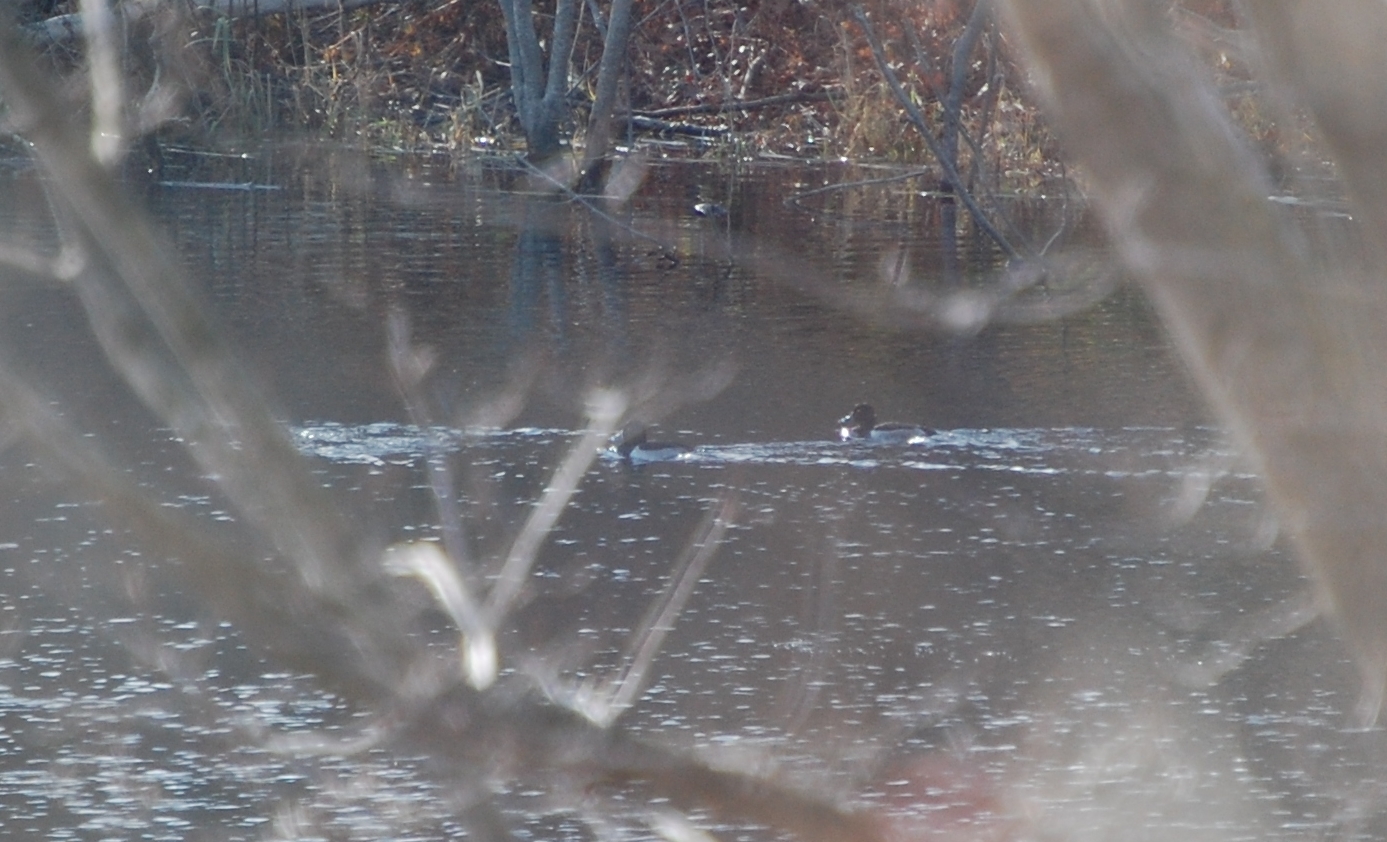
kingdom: Animalia
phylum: Chordata
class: Aves
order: Anseriformes
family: Anatidae
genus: Aythya
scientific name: Aythya collaris
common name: Ring-necked duck
